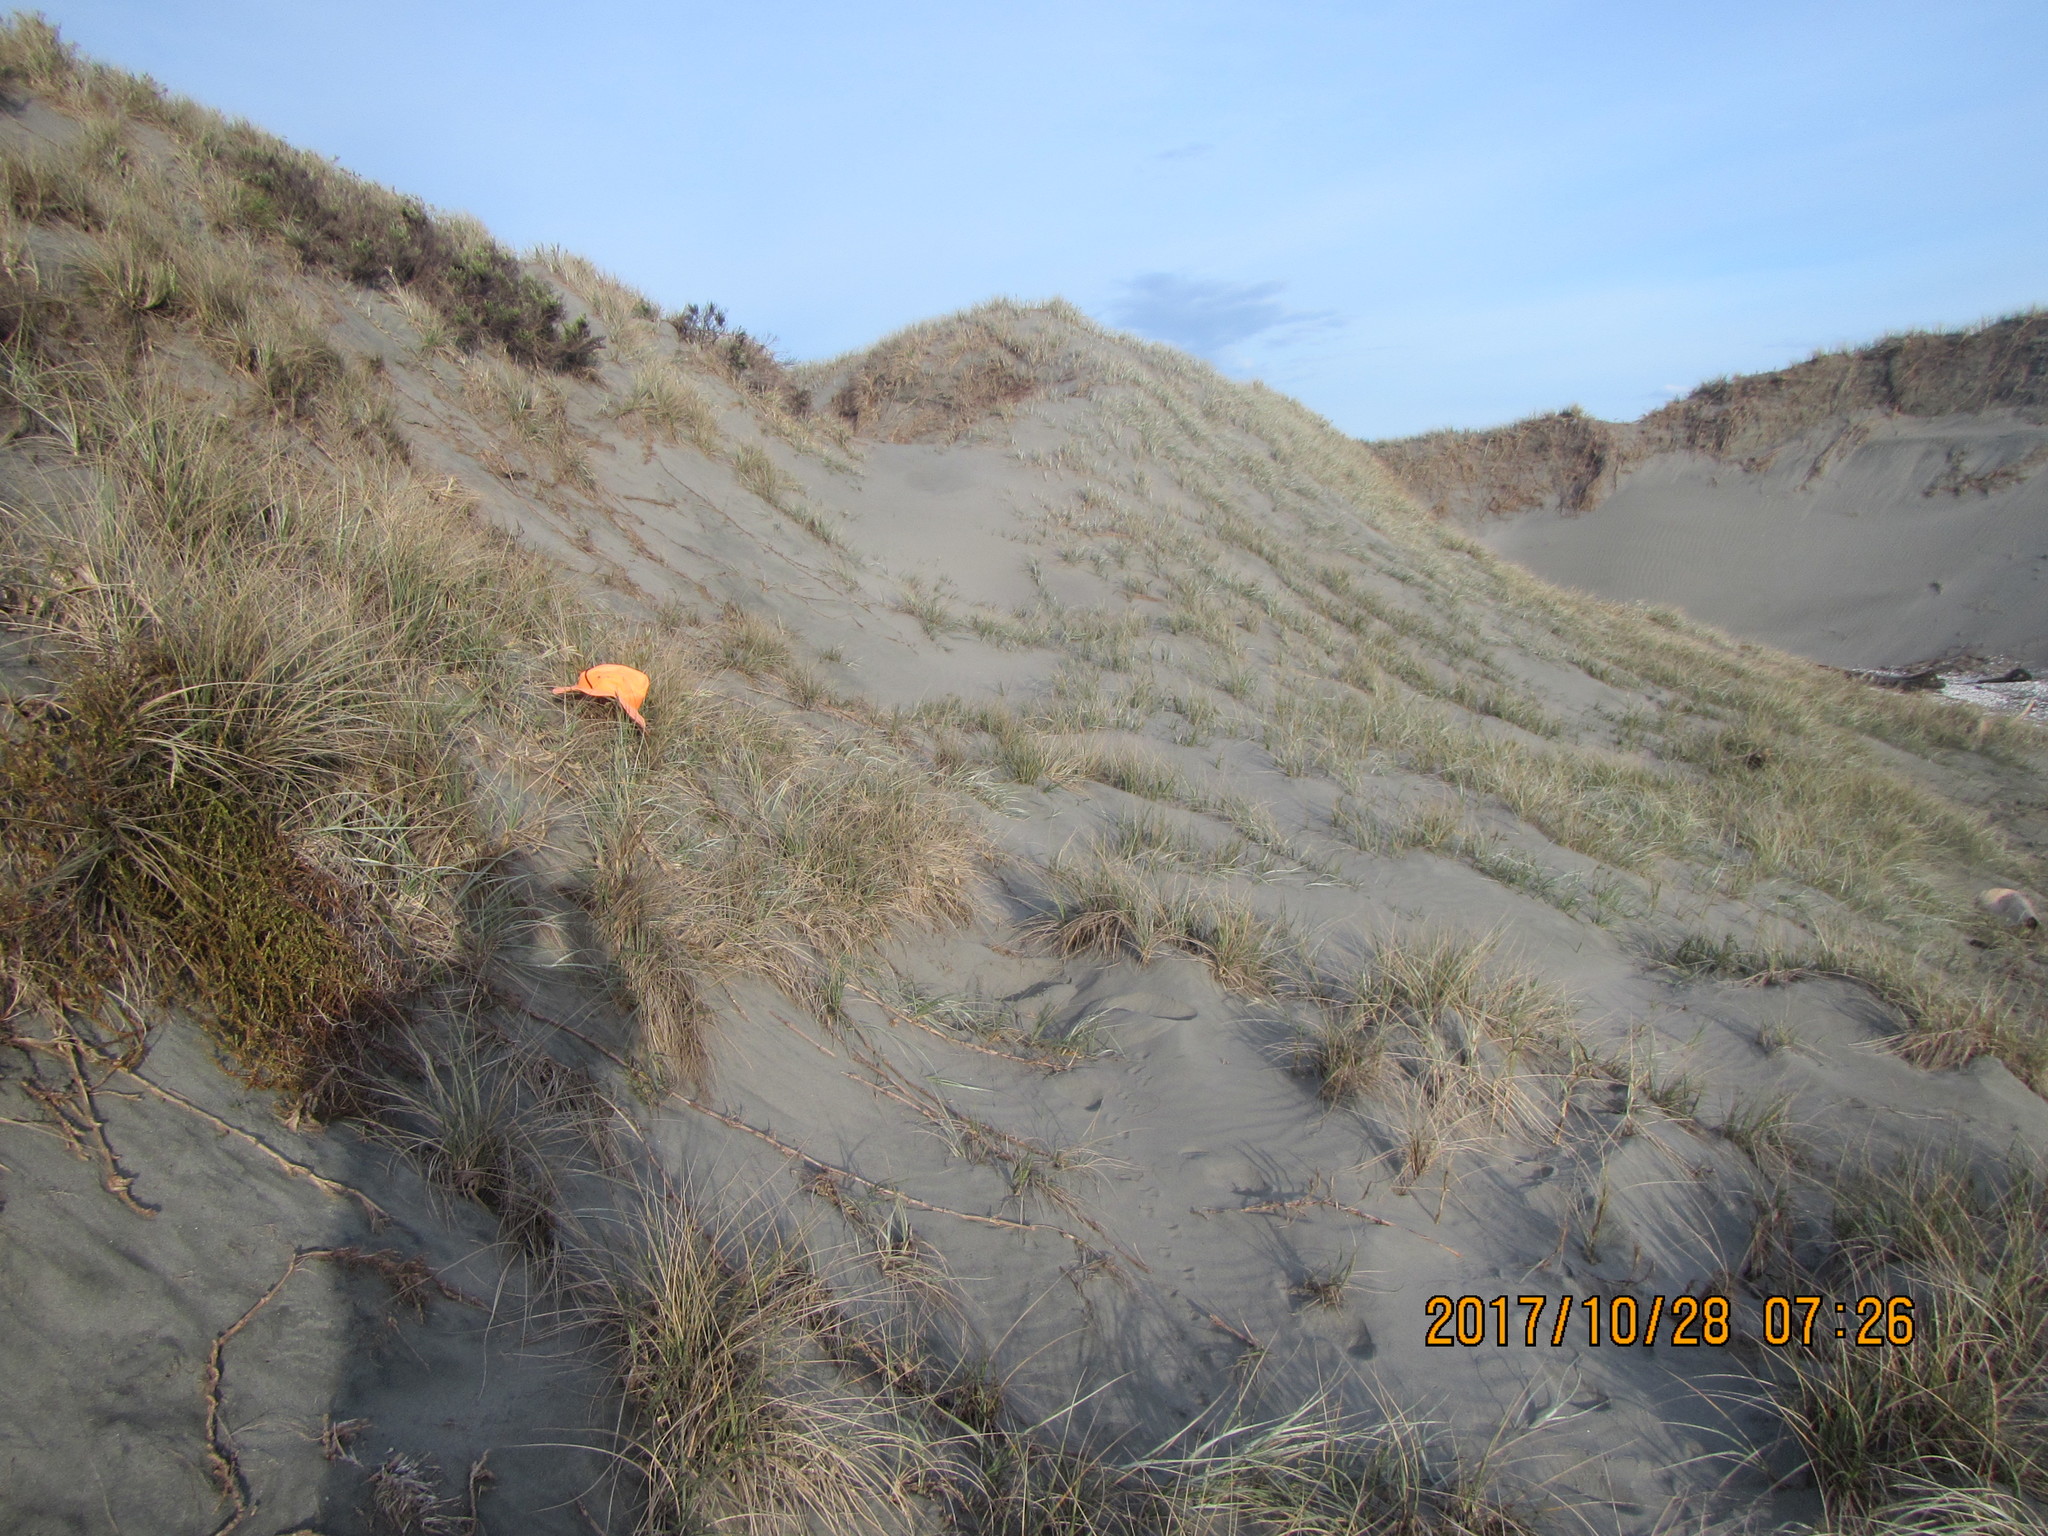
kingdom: Animalia
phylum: Arthropoda
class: Arachnida
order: Araneae
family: Theridiidae
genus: Latrodectus
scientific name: Latrodectus katipo
